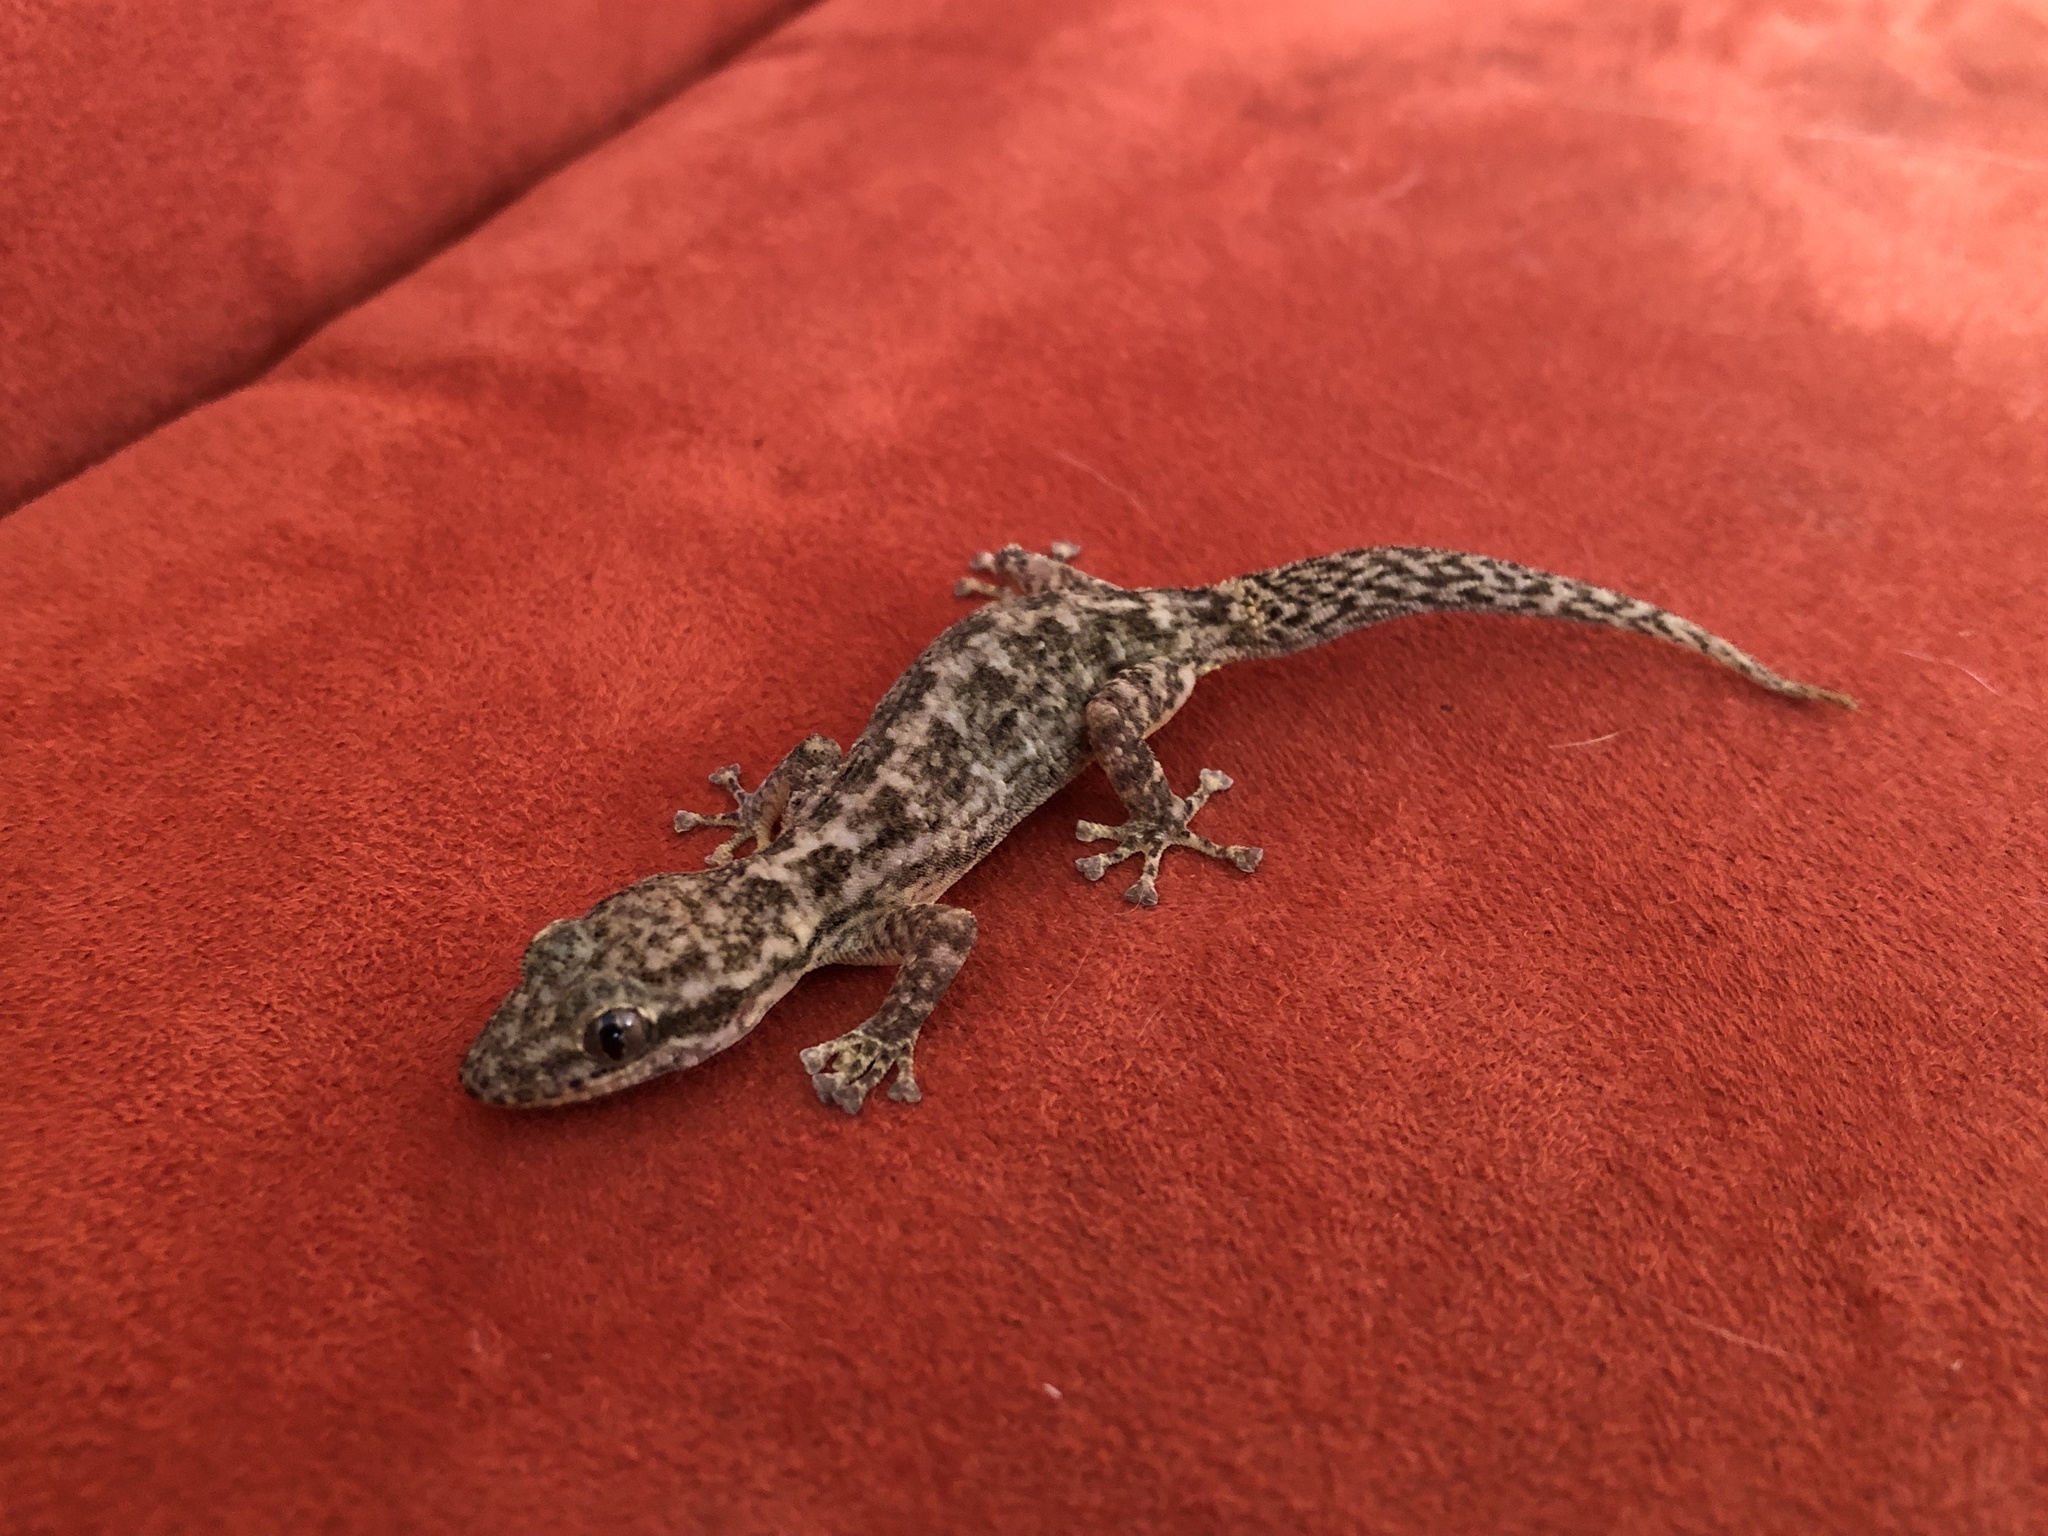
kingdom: Animalia
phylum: Chordata
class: Squamata
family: Phyllodactylidae
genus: Phyllodactylus
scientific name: Phyllodactylus reissii
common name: Peters' leaf-toed gecko
